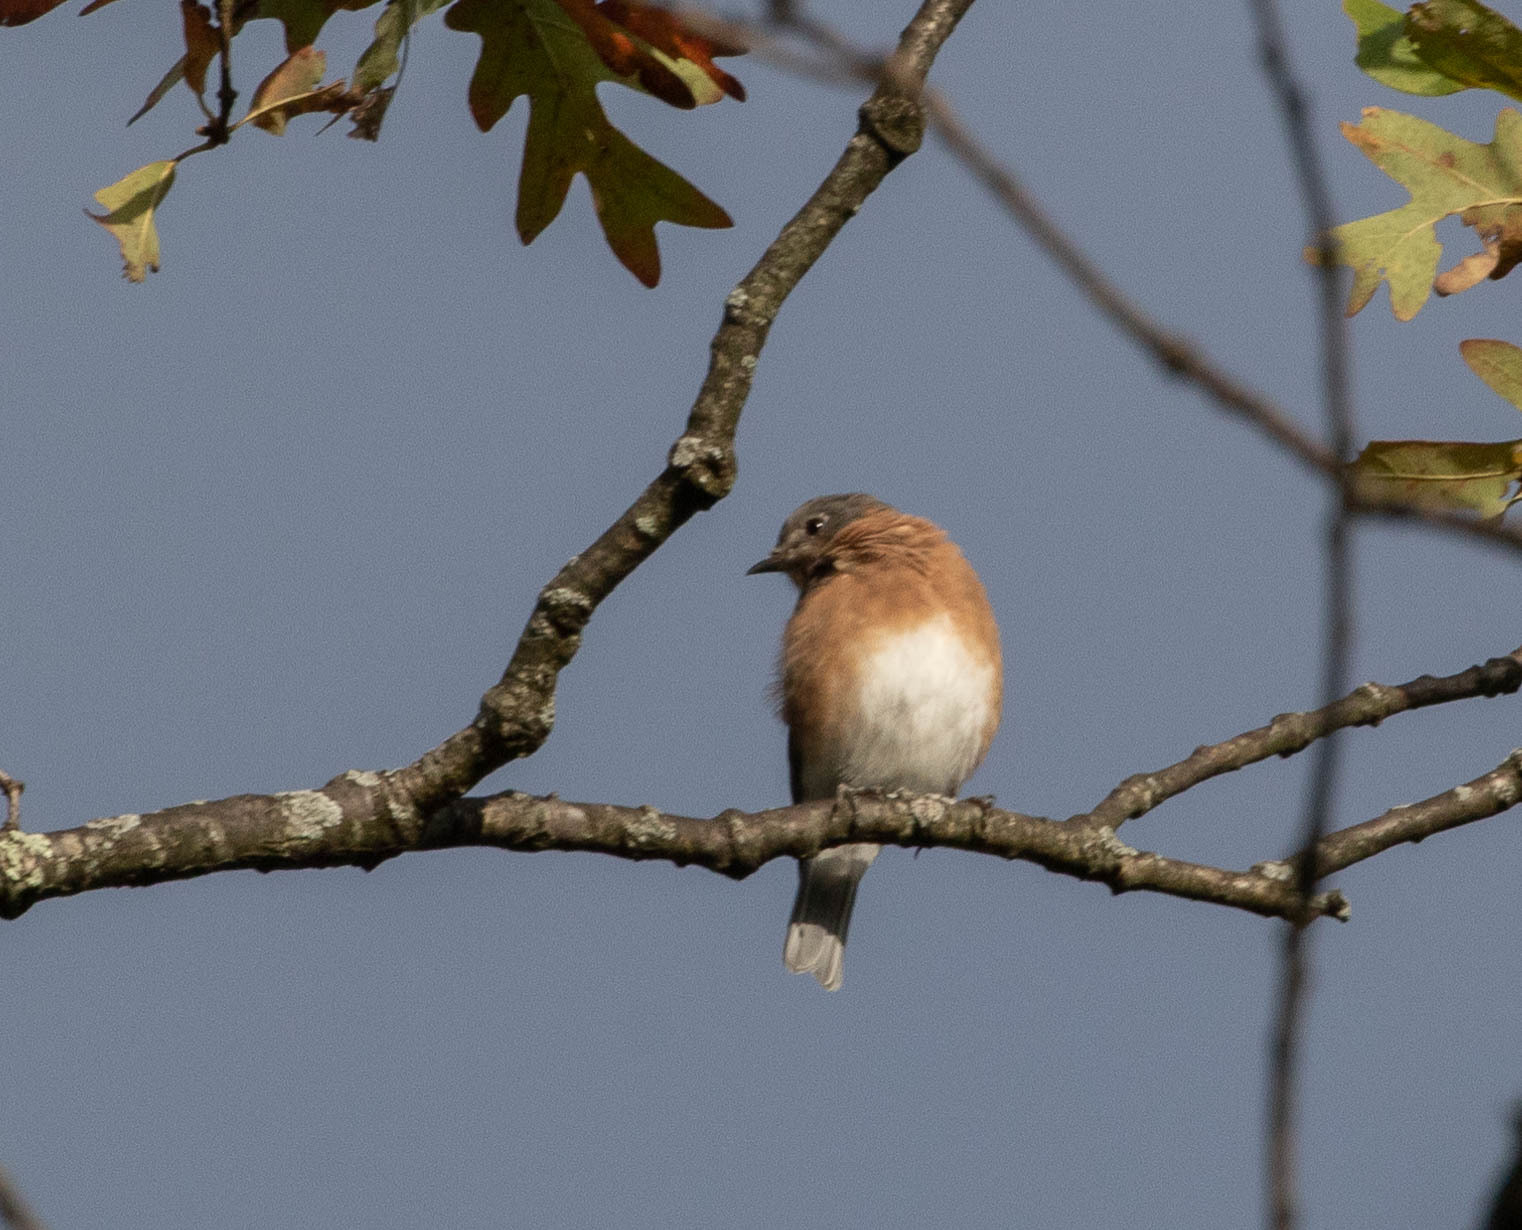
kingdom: Animalia
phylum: Chordata
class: Aves
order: Passeriformes
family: Turdidae
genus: Sialia
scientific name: Sialia sialis
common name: Eastern bluebird
